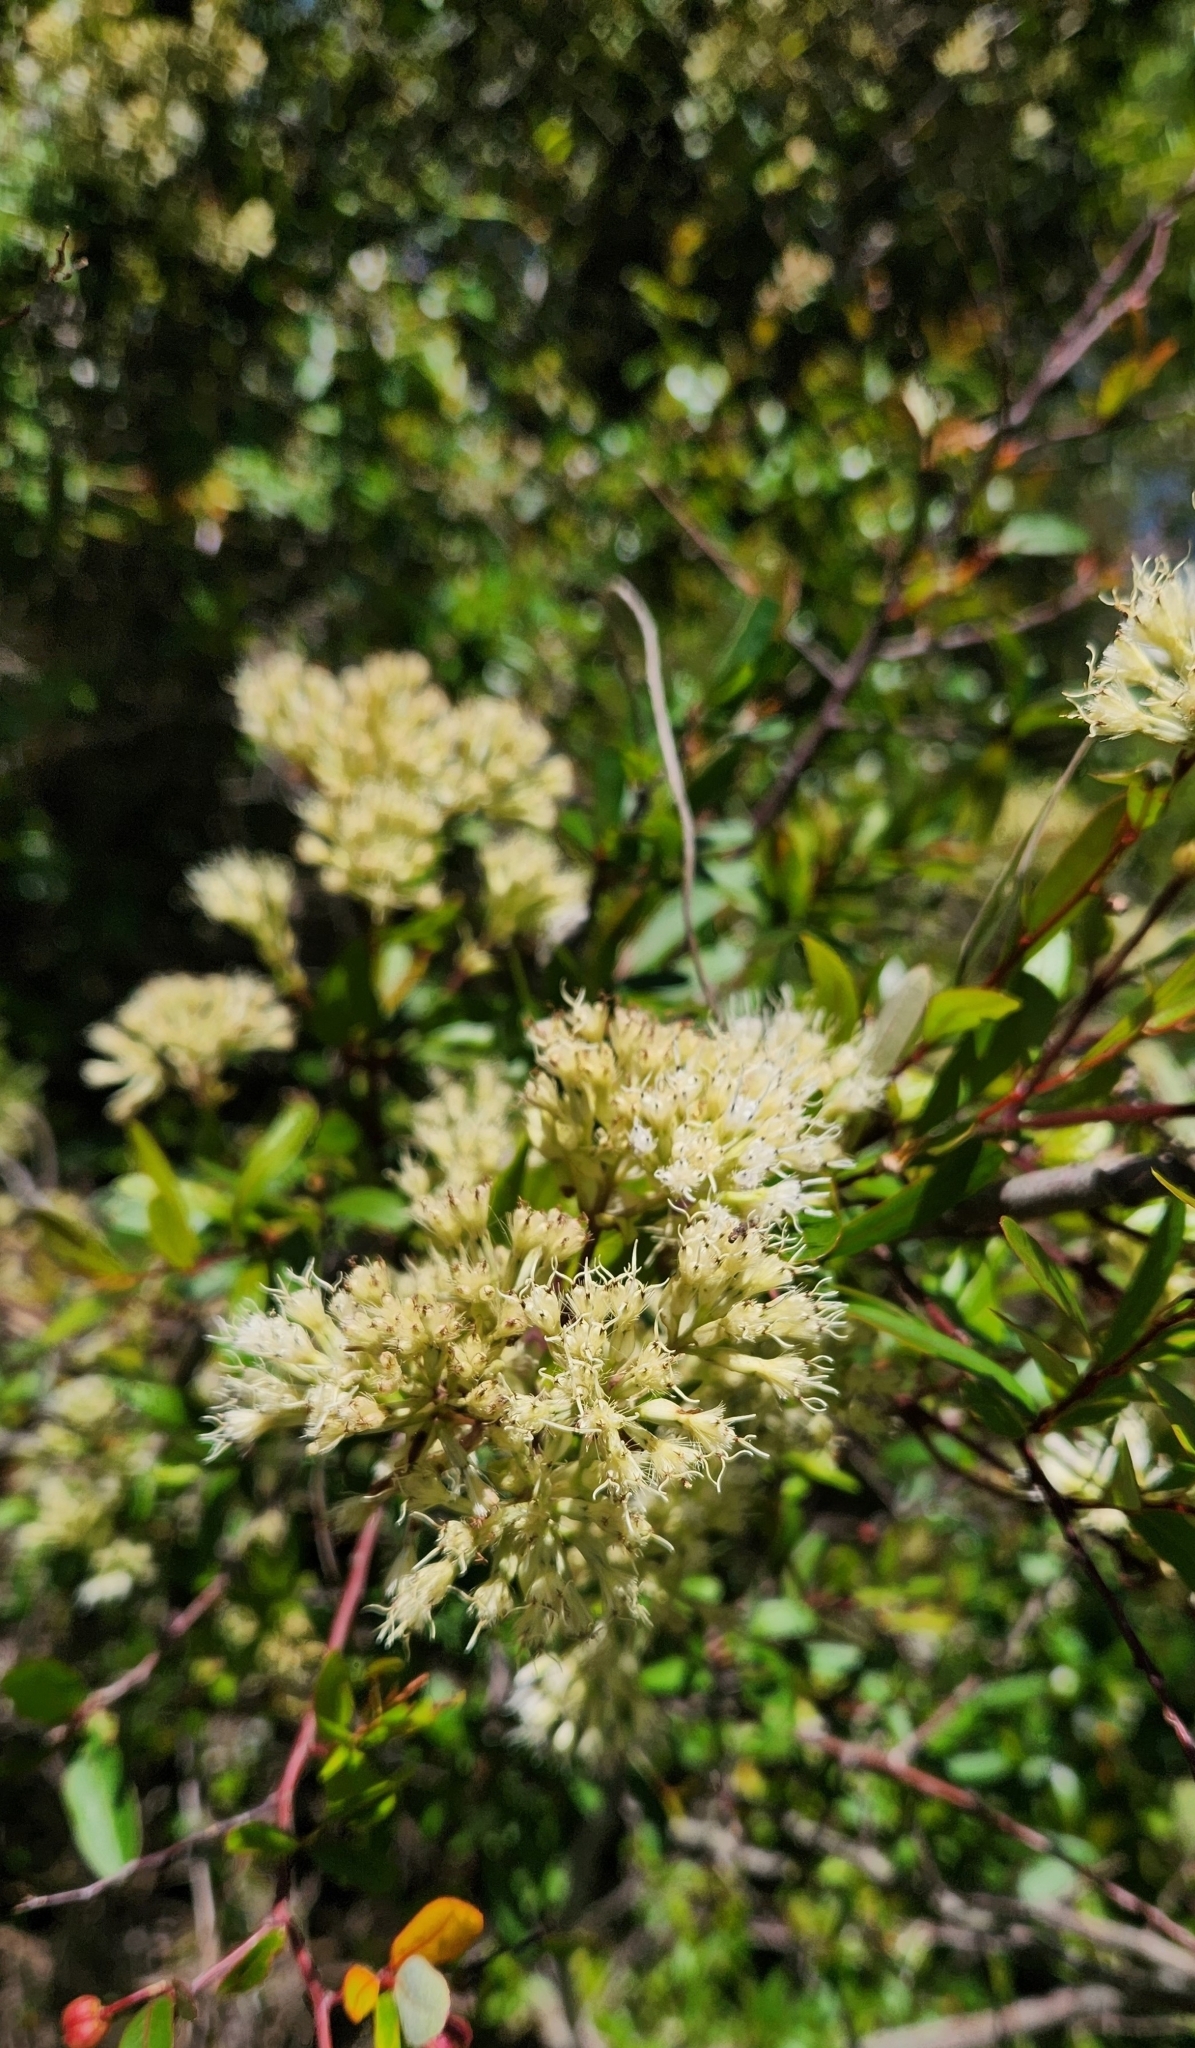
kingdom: Plantae
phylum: Tracheophyta
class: Magnoliopsida
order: Asterales
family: Asteraceae
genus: Mikania
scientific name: Mikania involucrata
